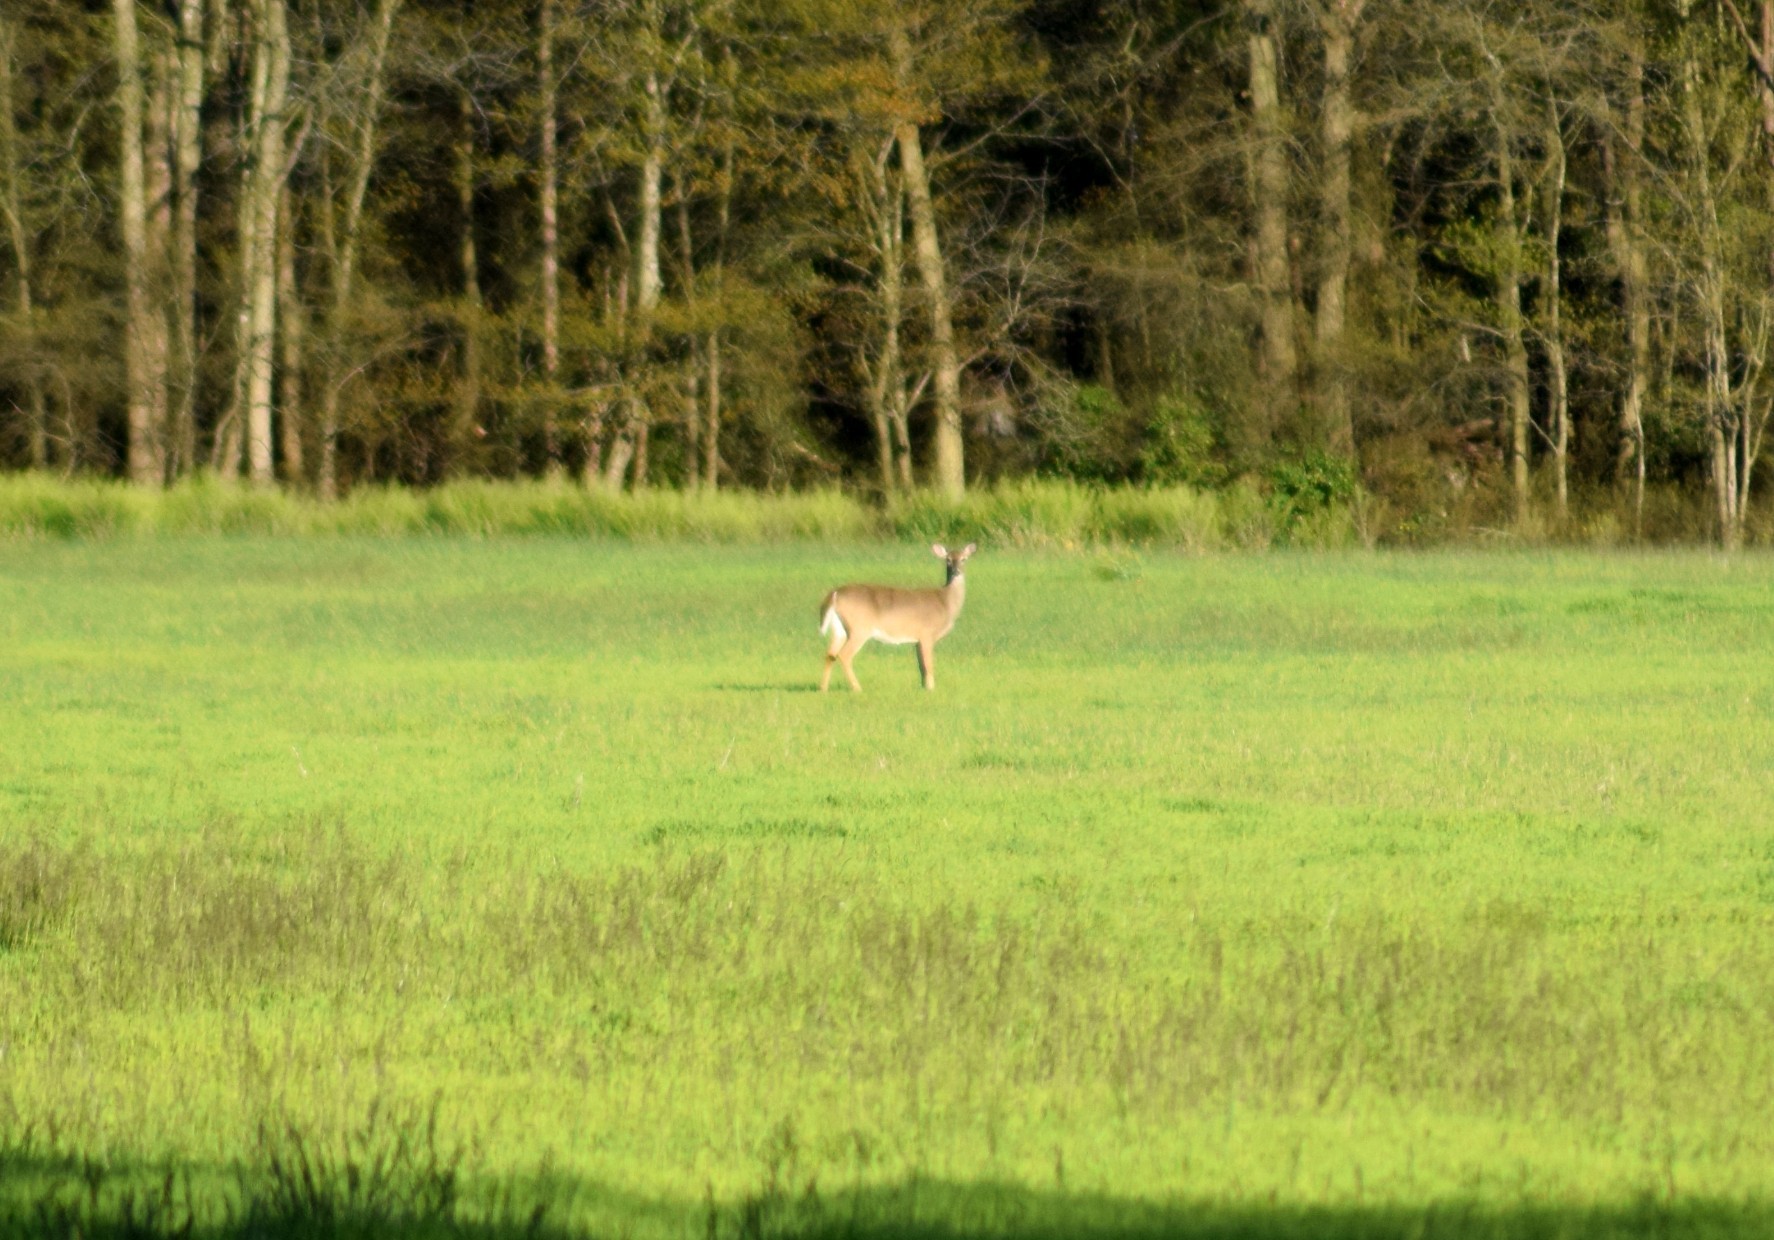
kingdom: Animalia
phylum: Chordata
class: Mammalia
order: Artiodactyla
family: Cervidae
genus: Odocoileus
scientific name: Odocoileus virginianus
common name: White-tailed deer
